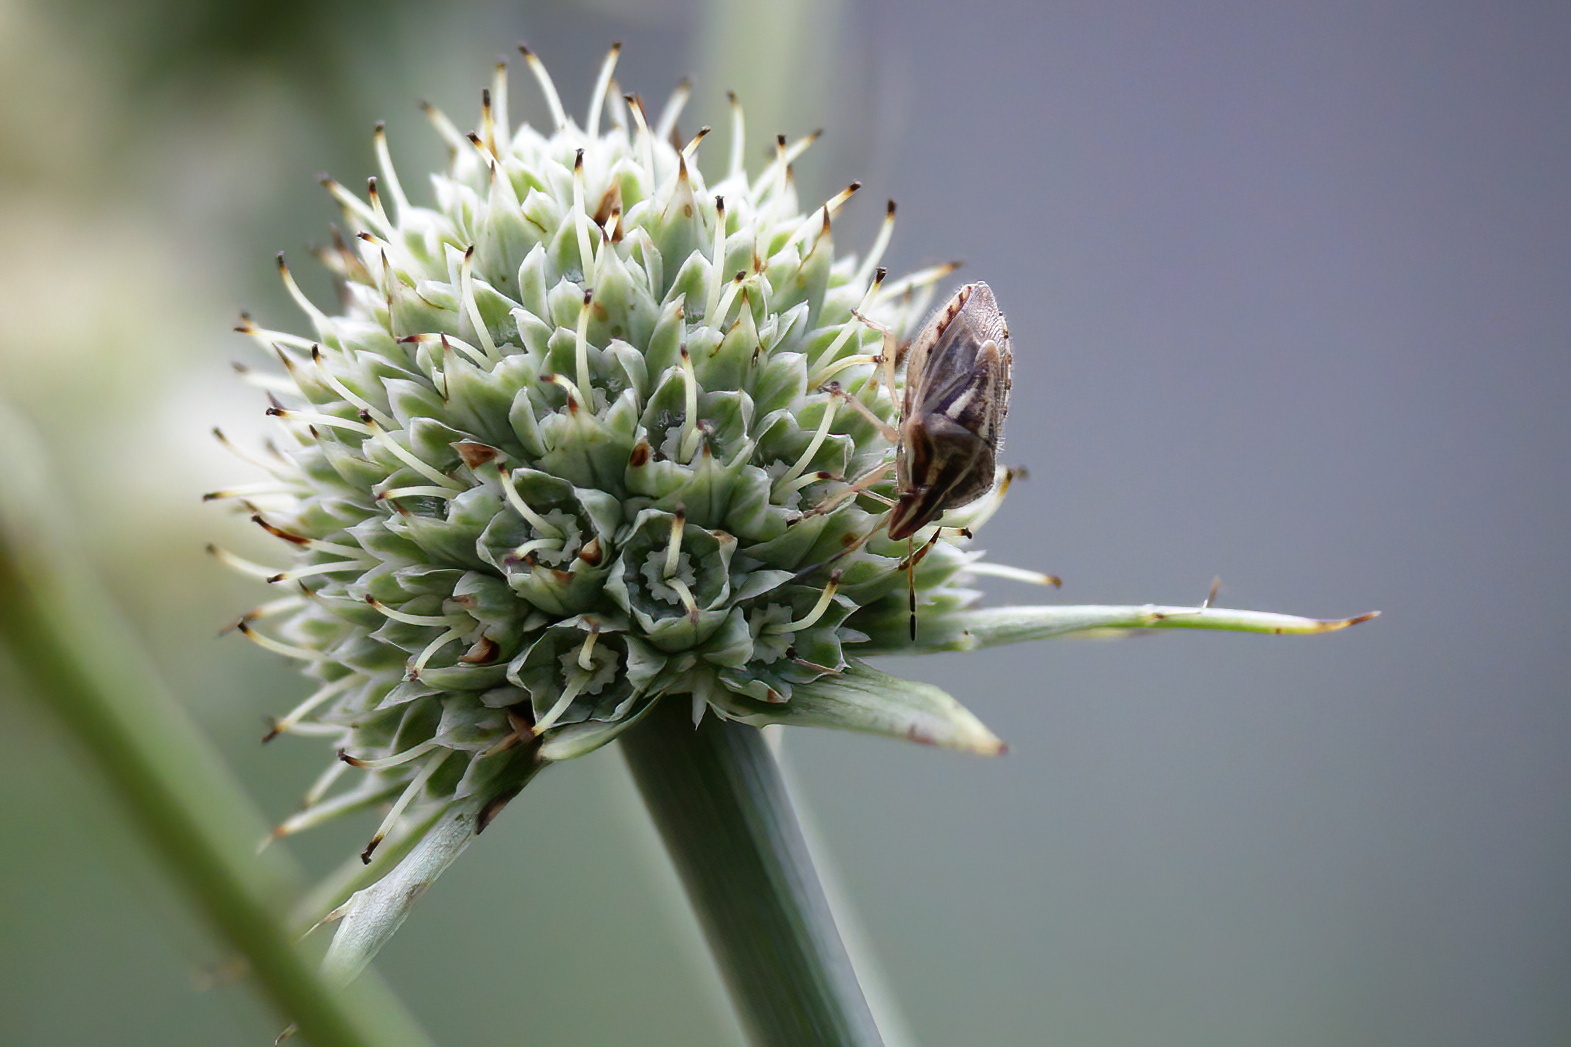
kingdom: Animalia
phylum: Arthropoda
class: Insecta
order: Hemiptera
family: Pentatomidae
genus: Trichopepla
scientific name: Trichopepla semivittata
